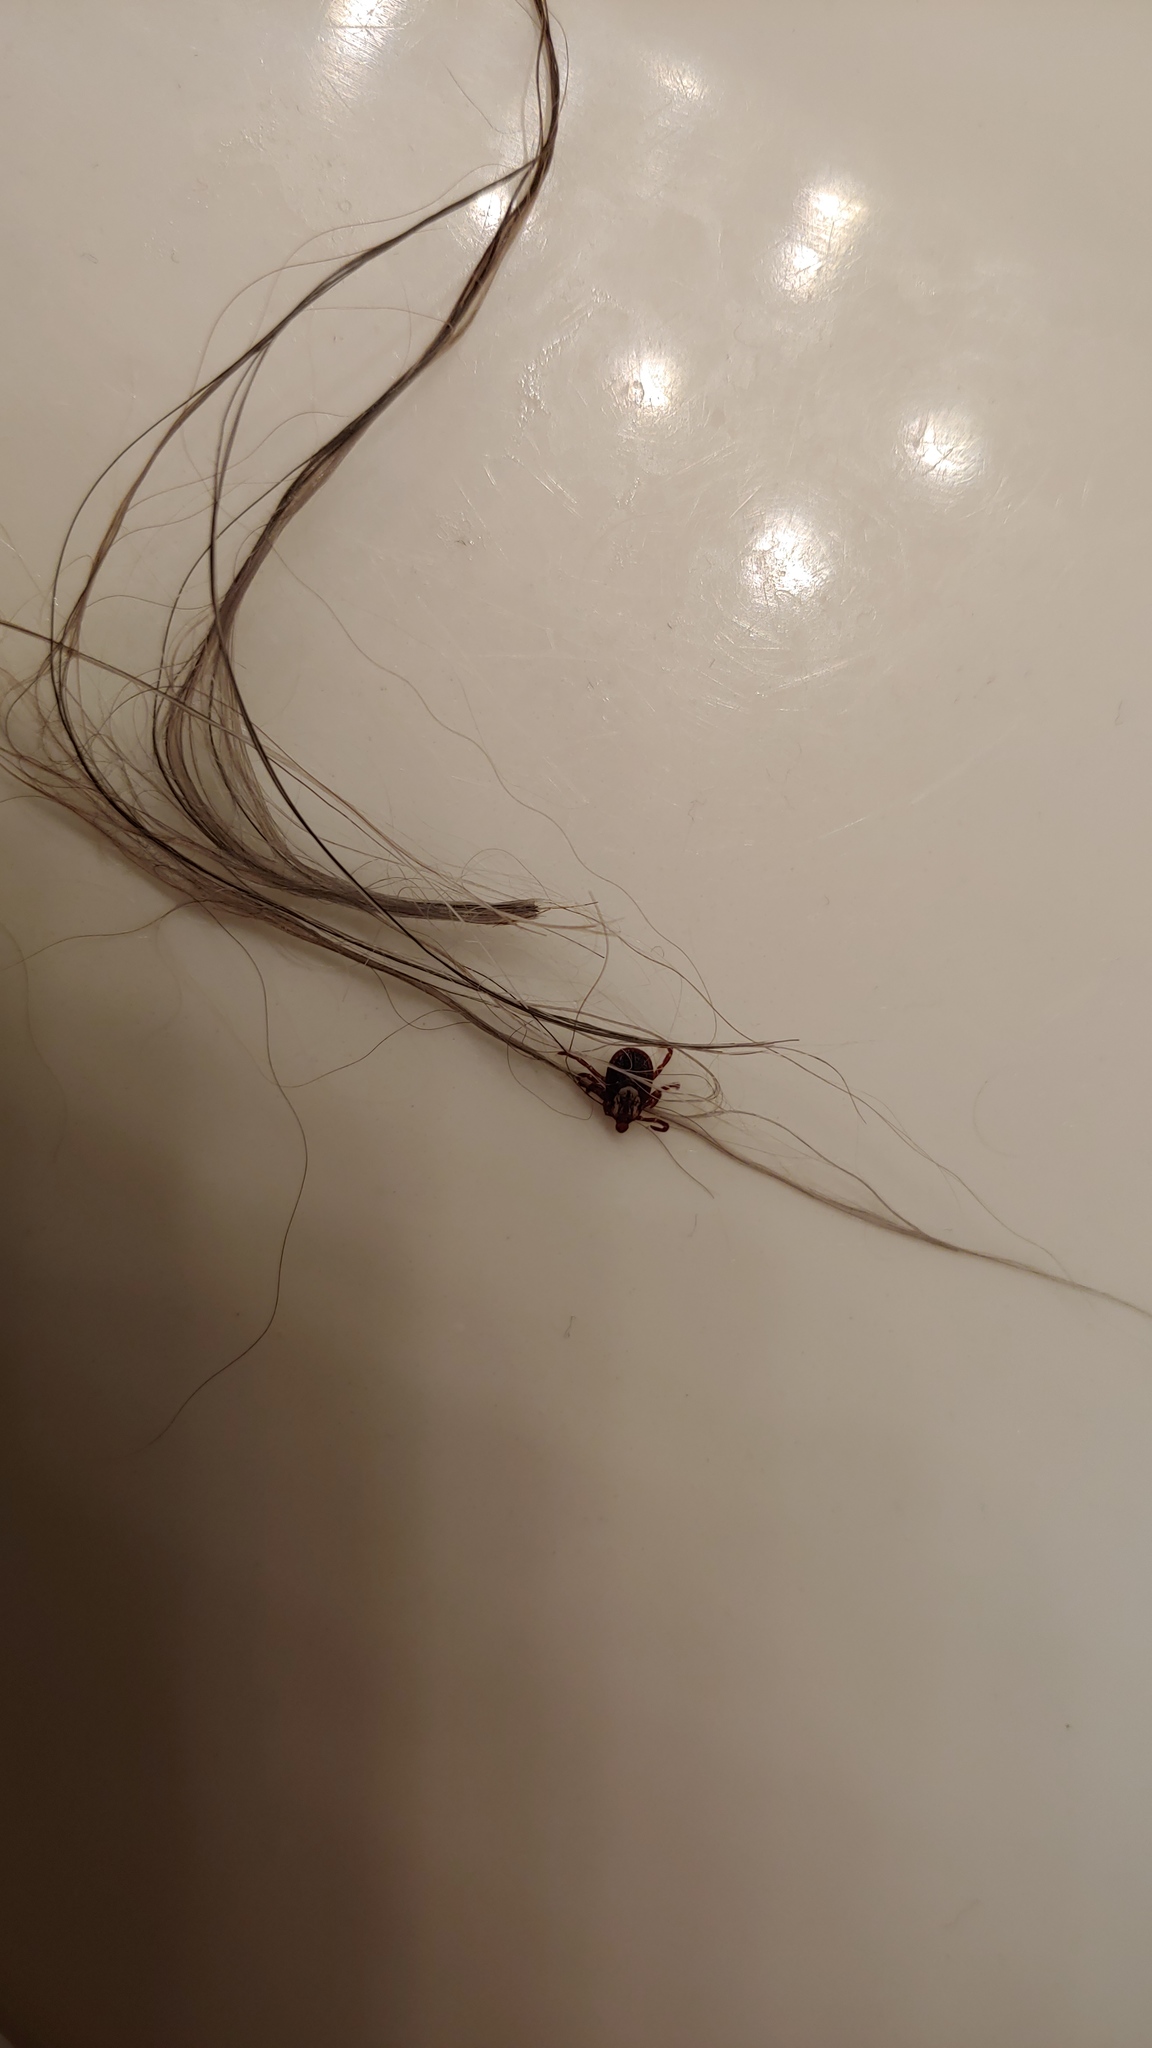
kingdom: Animalia
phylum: Arthropoda
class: Arachnida
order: Ixodida
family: Ixodidae
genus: Dermacentor
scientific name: Dermacentor variabilis
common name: American dog tick
